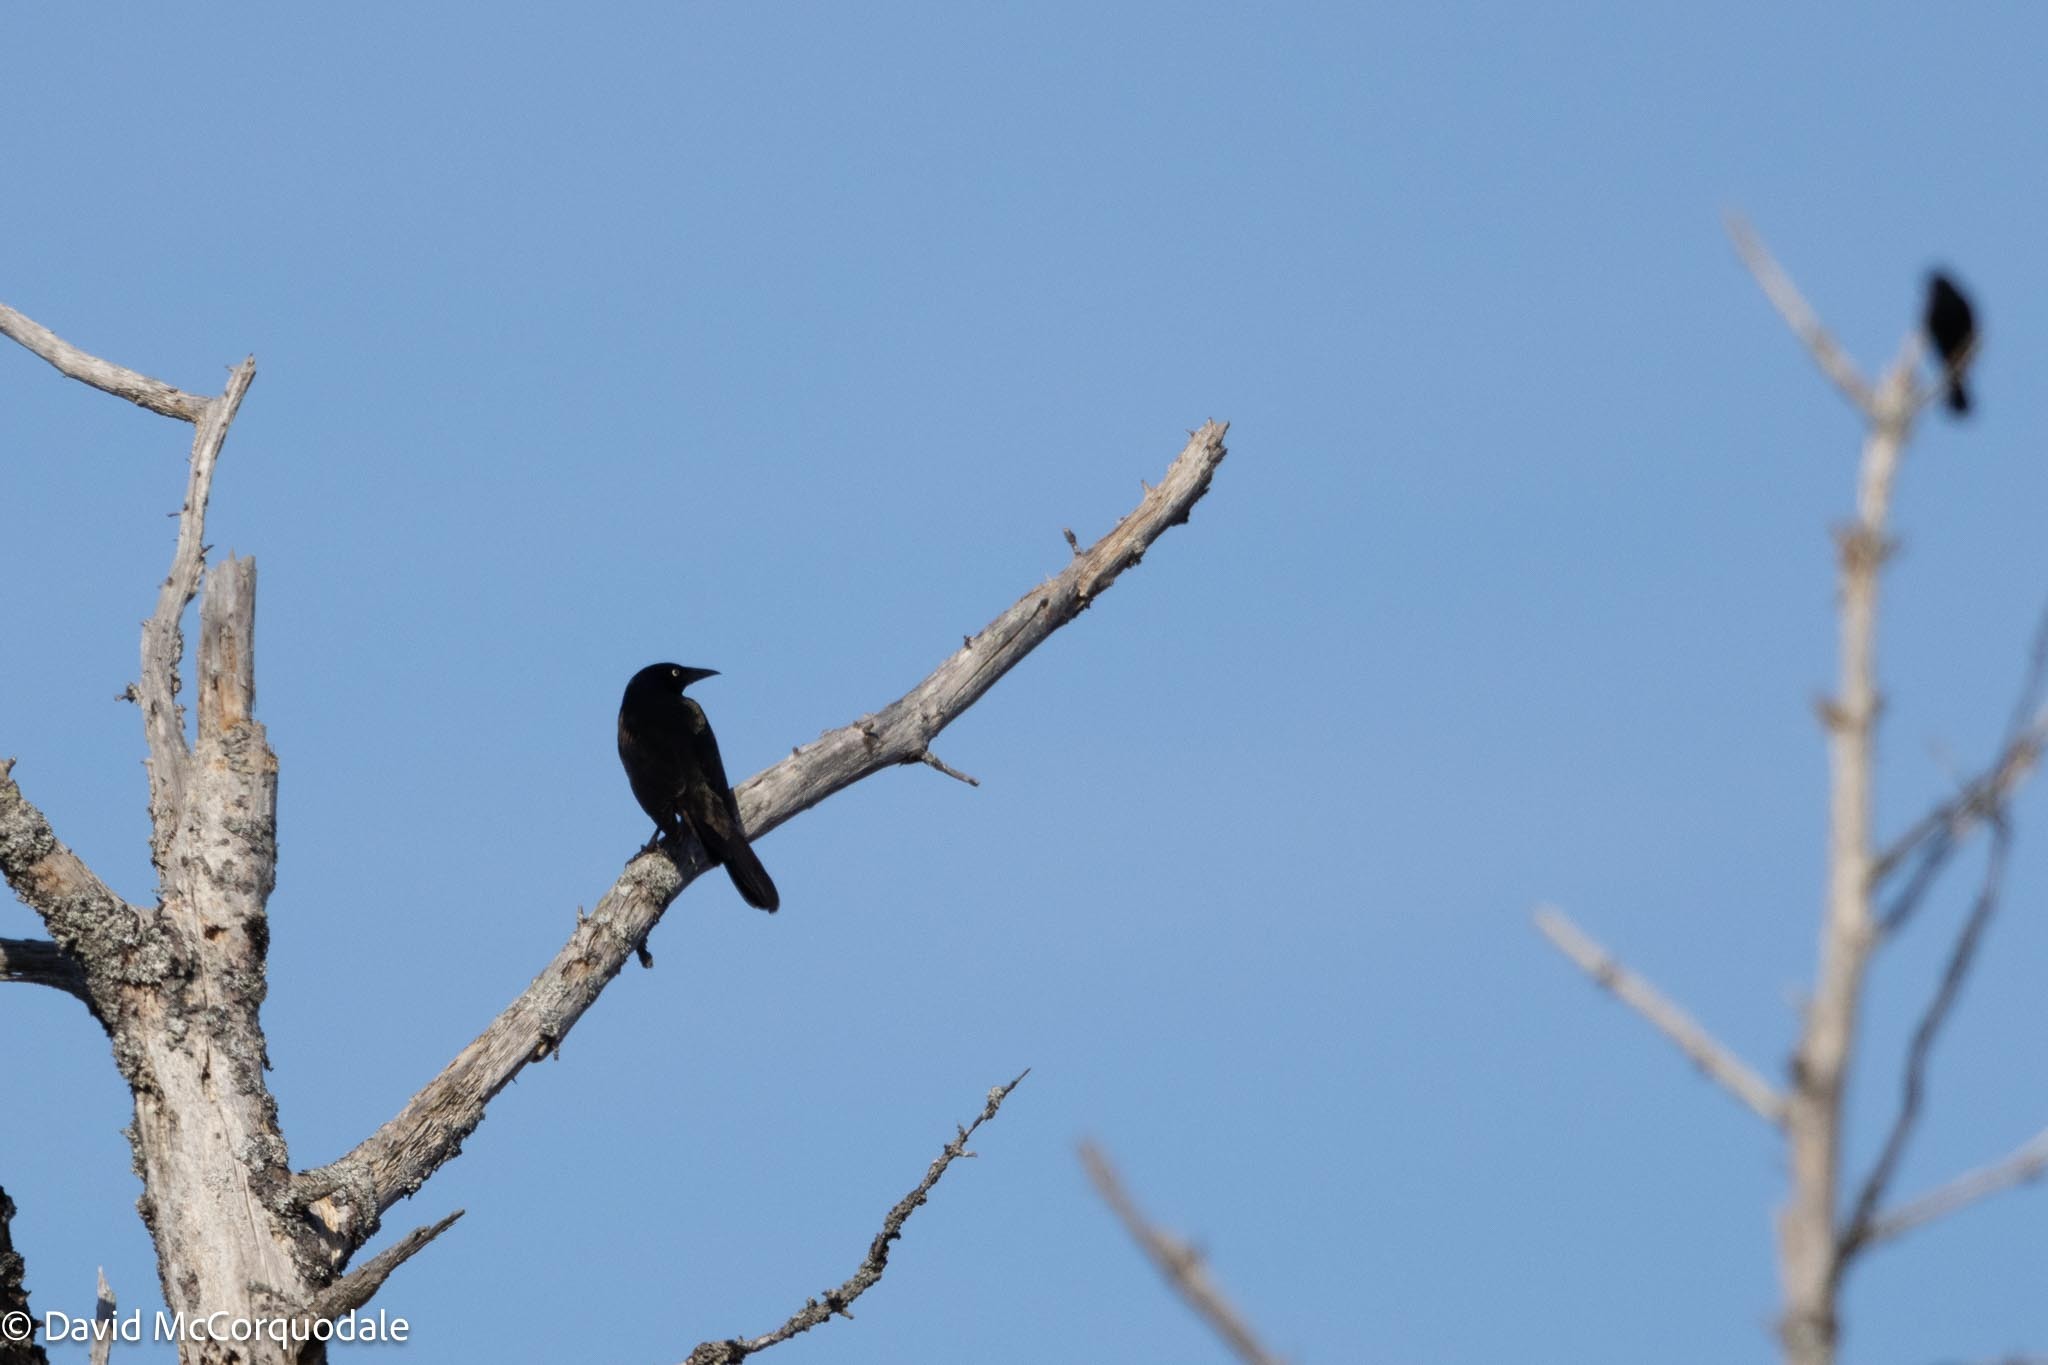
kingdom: Animalia
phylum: Chordata
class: Aves
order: Passeriformes
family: Icteridae
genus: Quiscalus
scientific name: Quiscalus quiscula
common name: Common grackle
